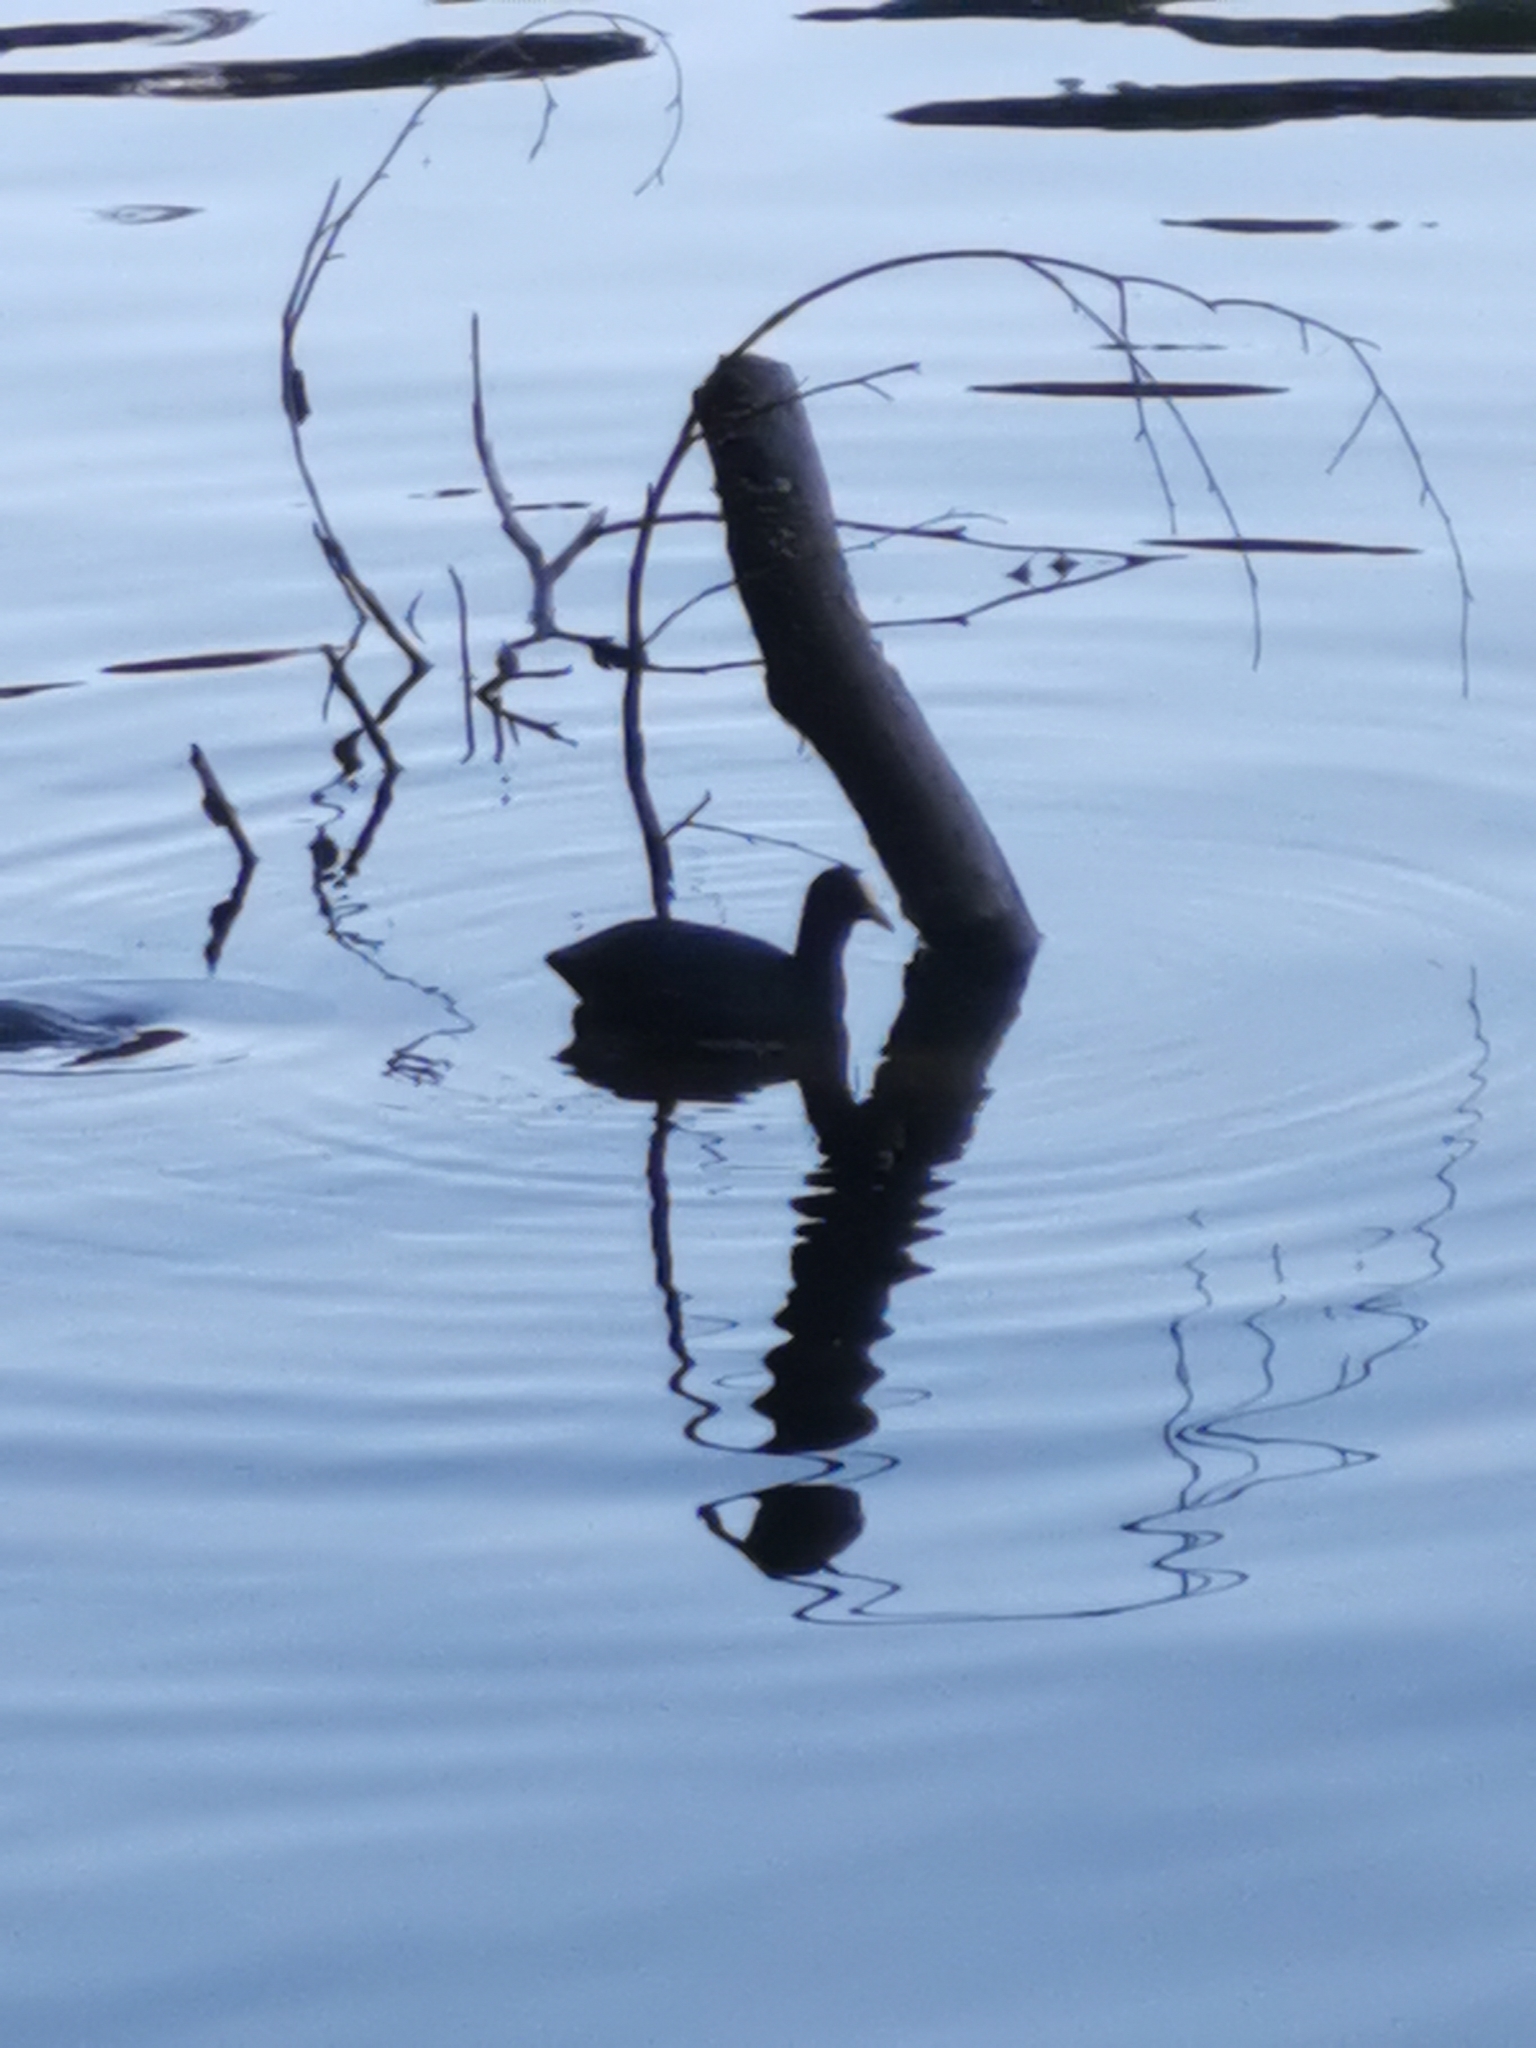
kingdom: Animalia
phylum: Chordata
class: Aves
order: Gruiformes
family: Rallidae
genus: Fulica
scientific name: Fulica atra
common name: Eurasian coot
